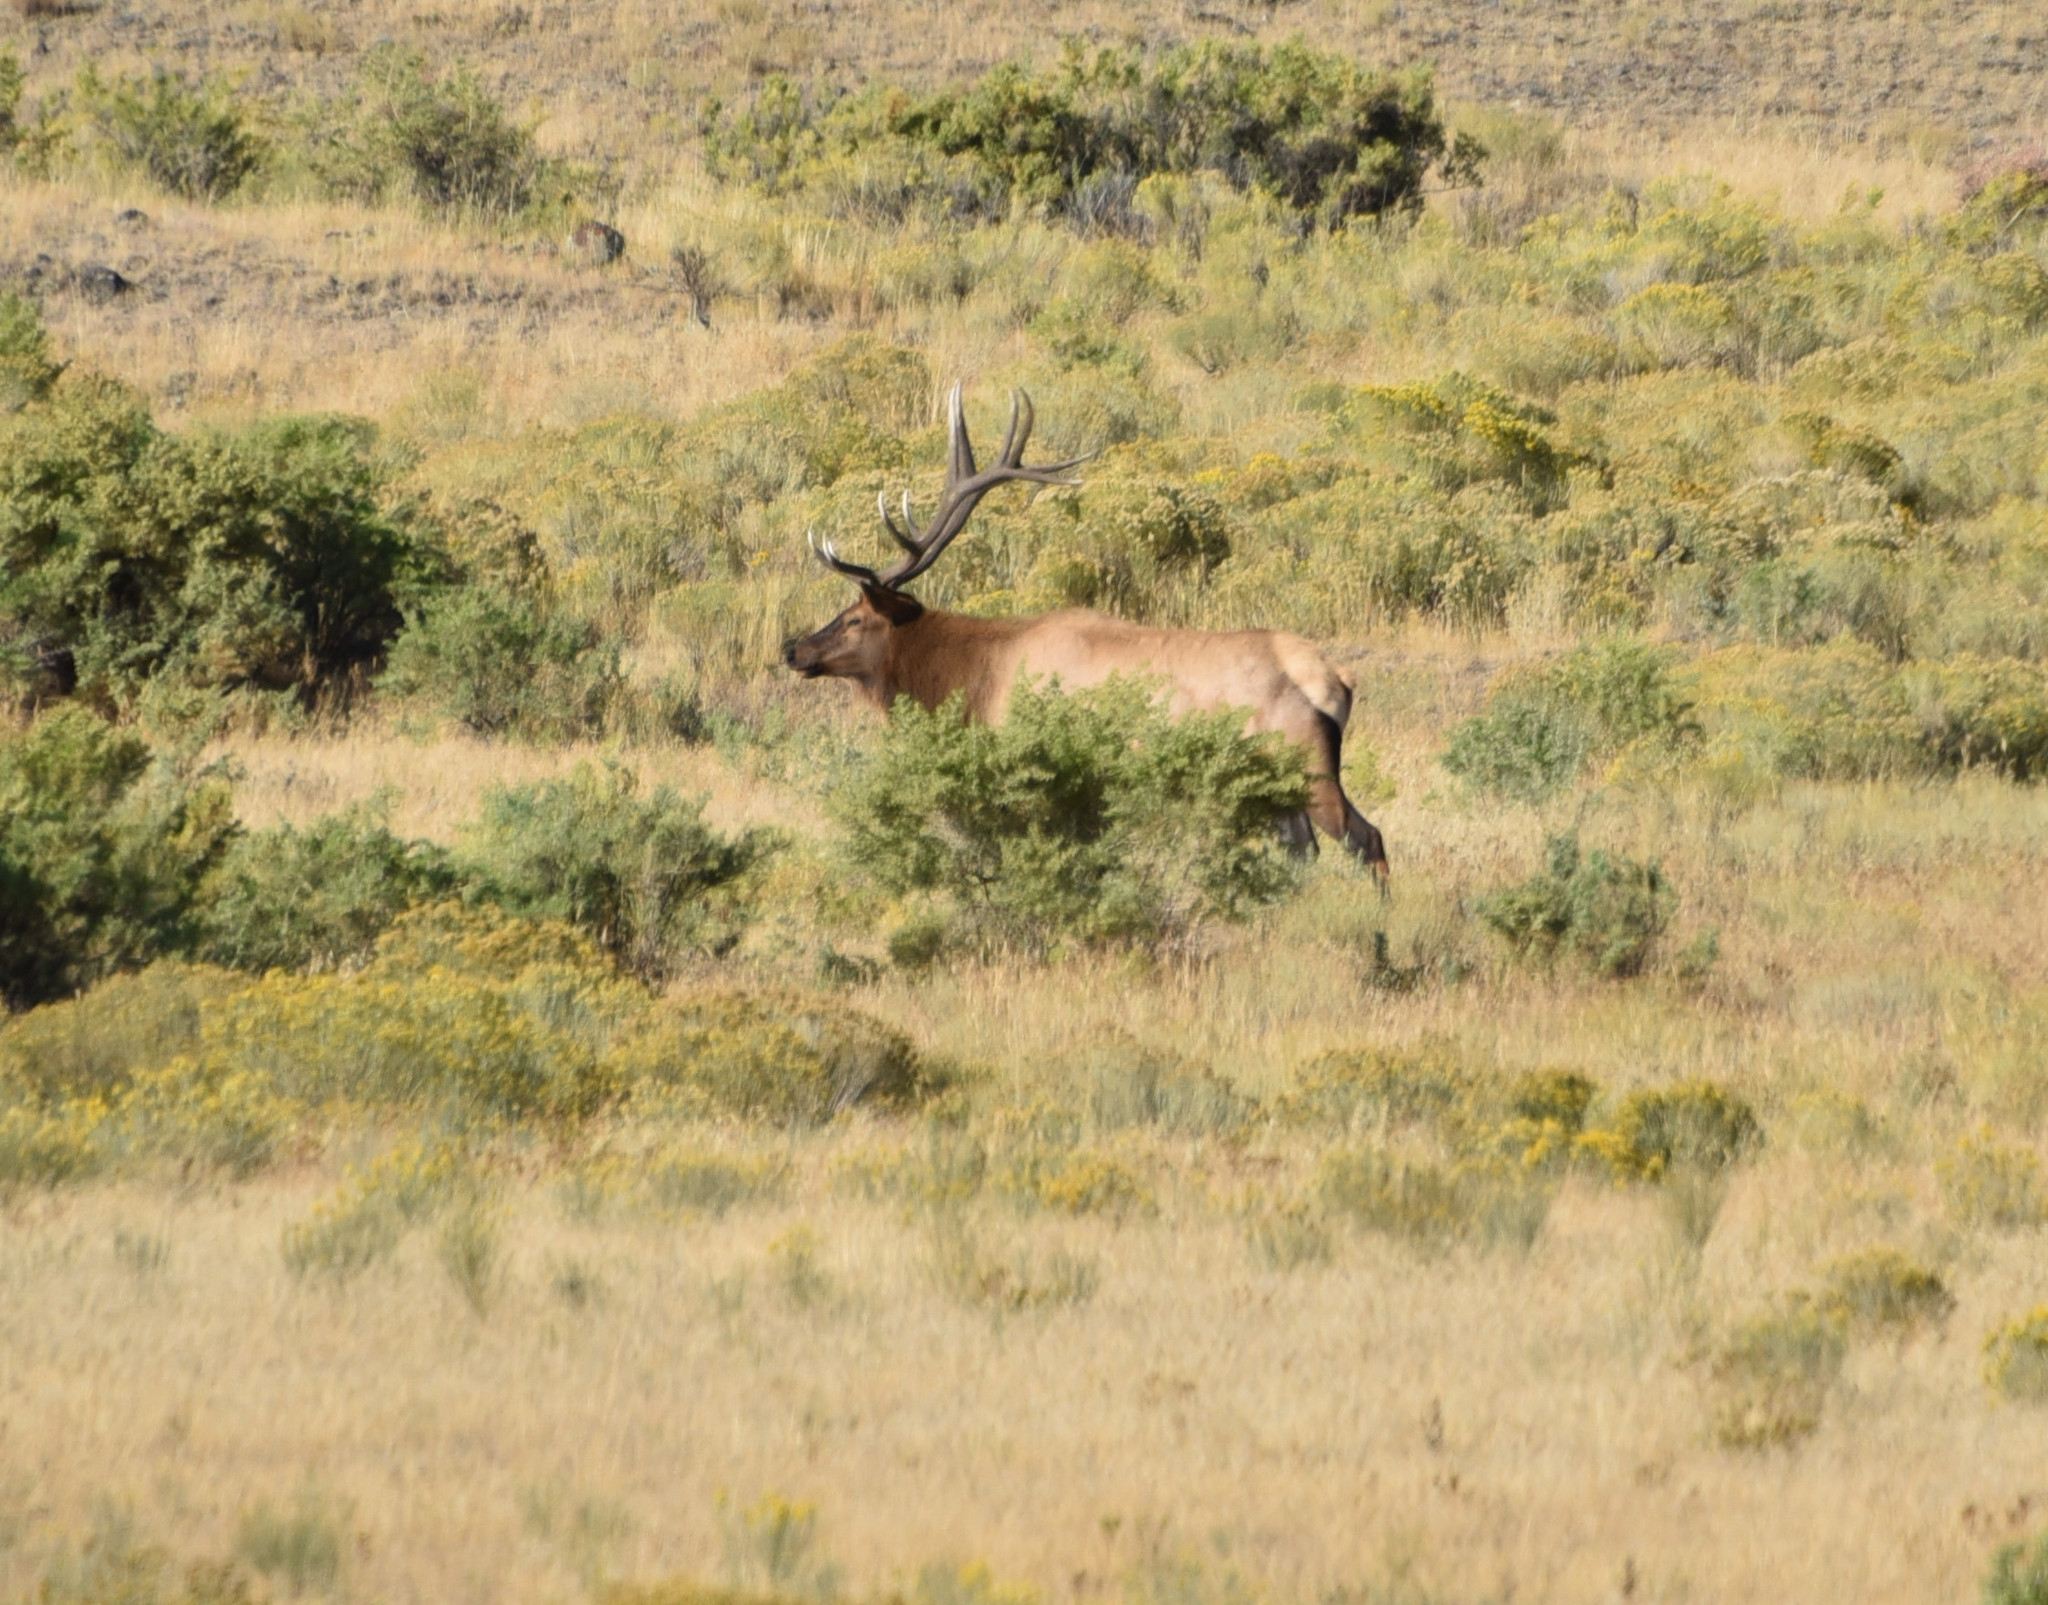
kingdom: Animalia
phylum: Chordata
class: Mammalia
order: Artiodactyla
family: Cervidae
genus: Cervus
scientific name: Cervus elaphus
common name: Red deer
